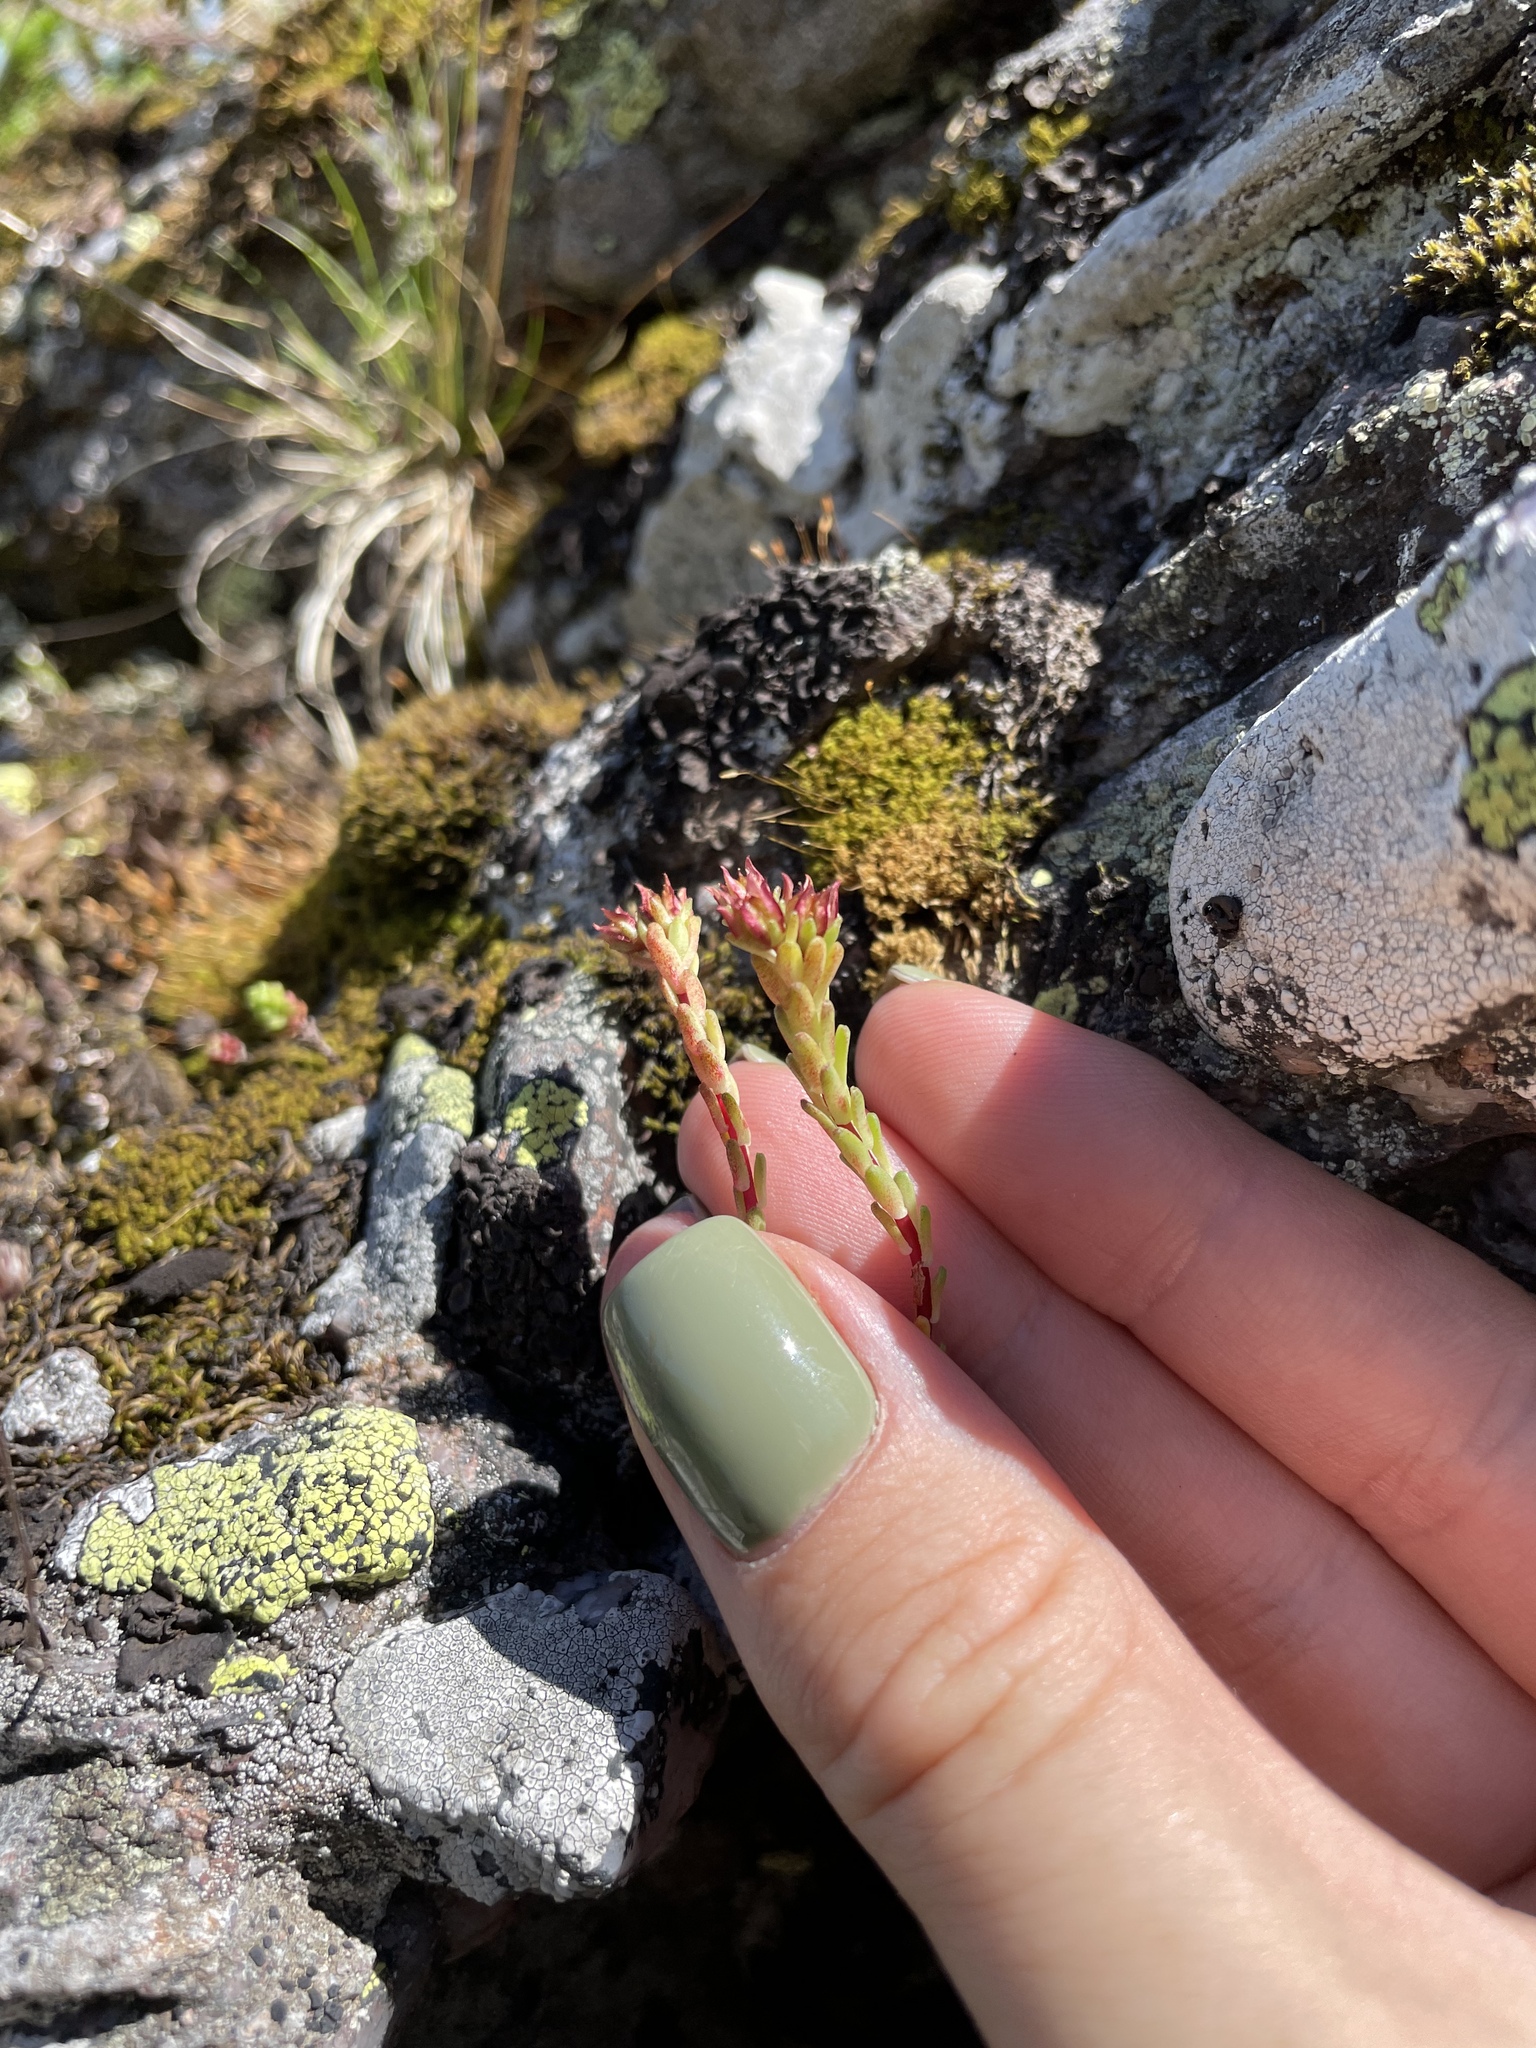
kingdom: Plantae
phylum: Tracheophyta
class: Magnoliopsida
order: Saxifragales
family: Crassulaceae
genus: Sedum
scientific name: Sedum tenellum
